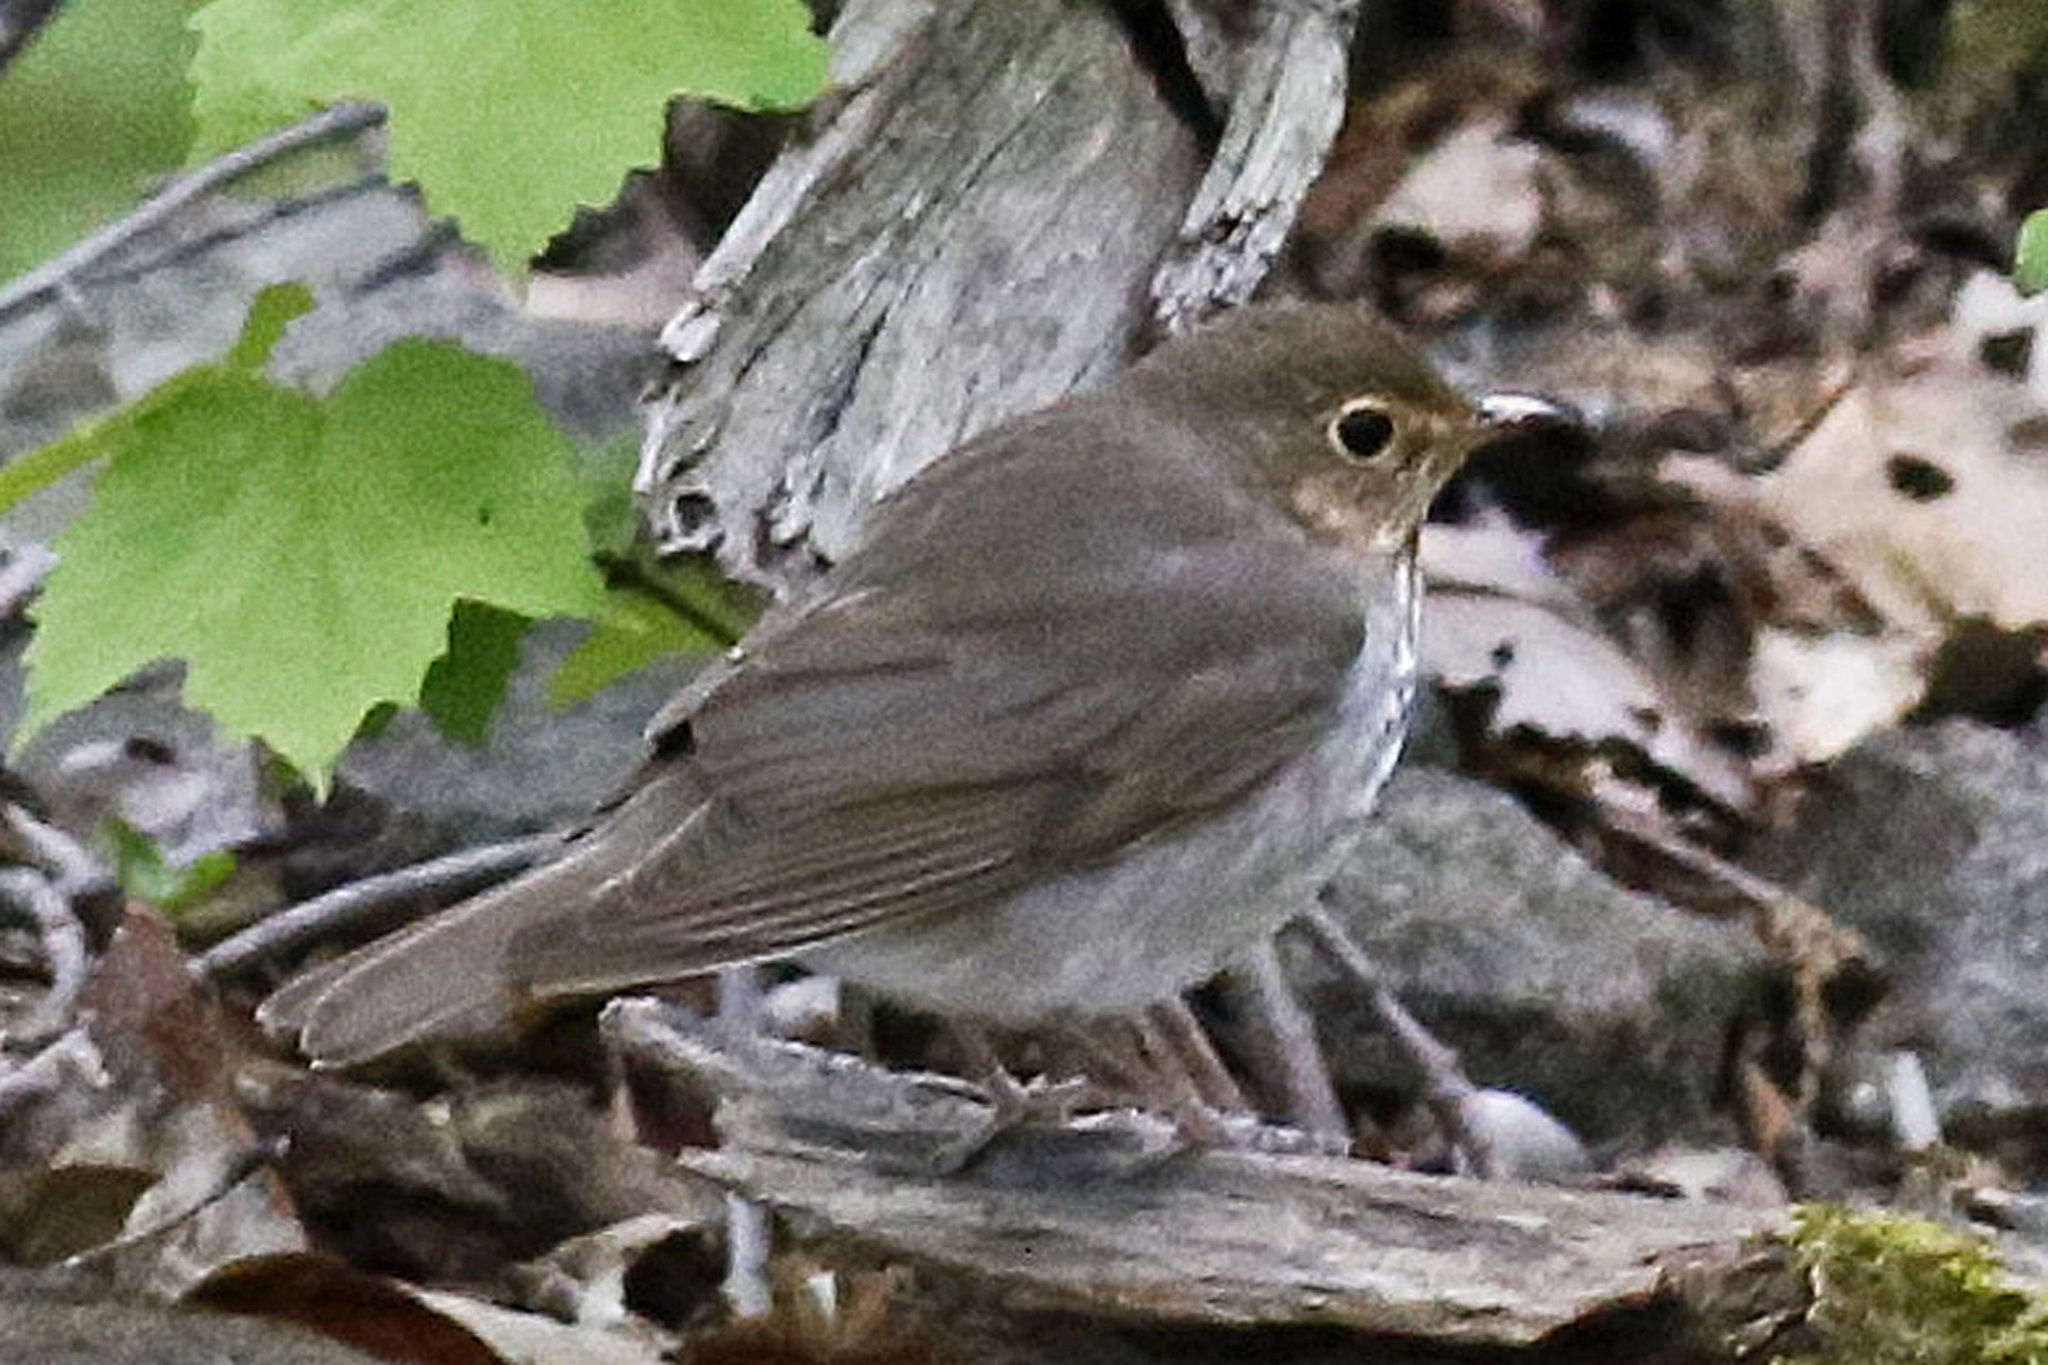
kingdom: Animalia
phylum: Chordata
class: Aves
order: Passeriformes
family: Turdidae
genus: Catharus
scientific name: Catharus ustulatus
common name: Swainson's thrush
